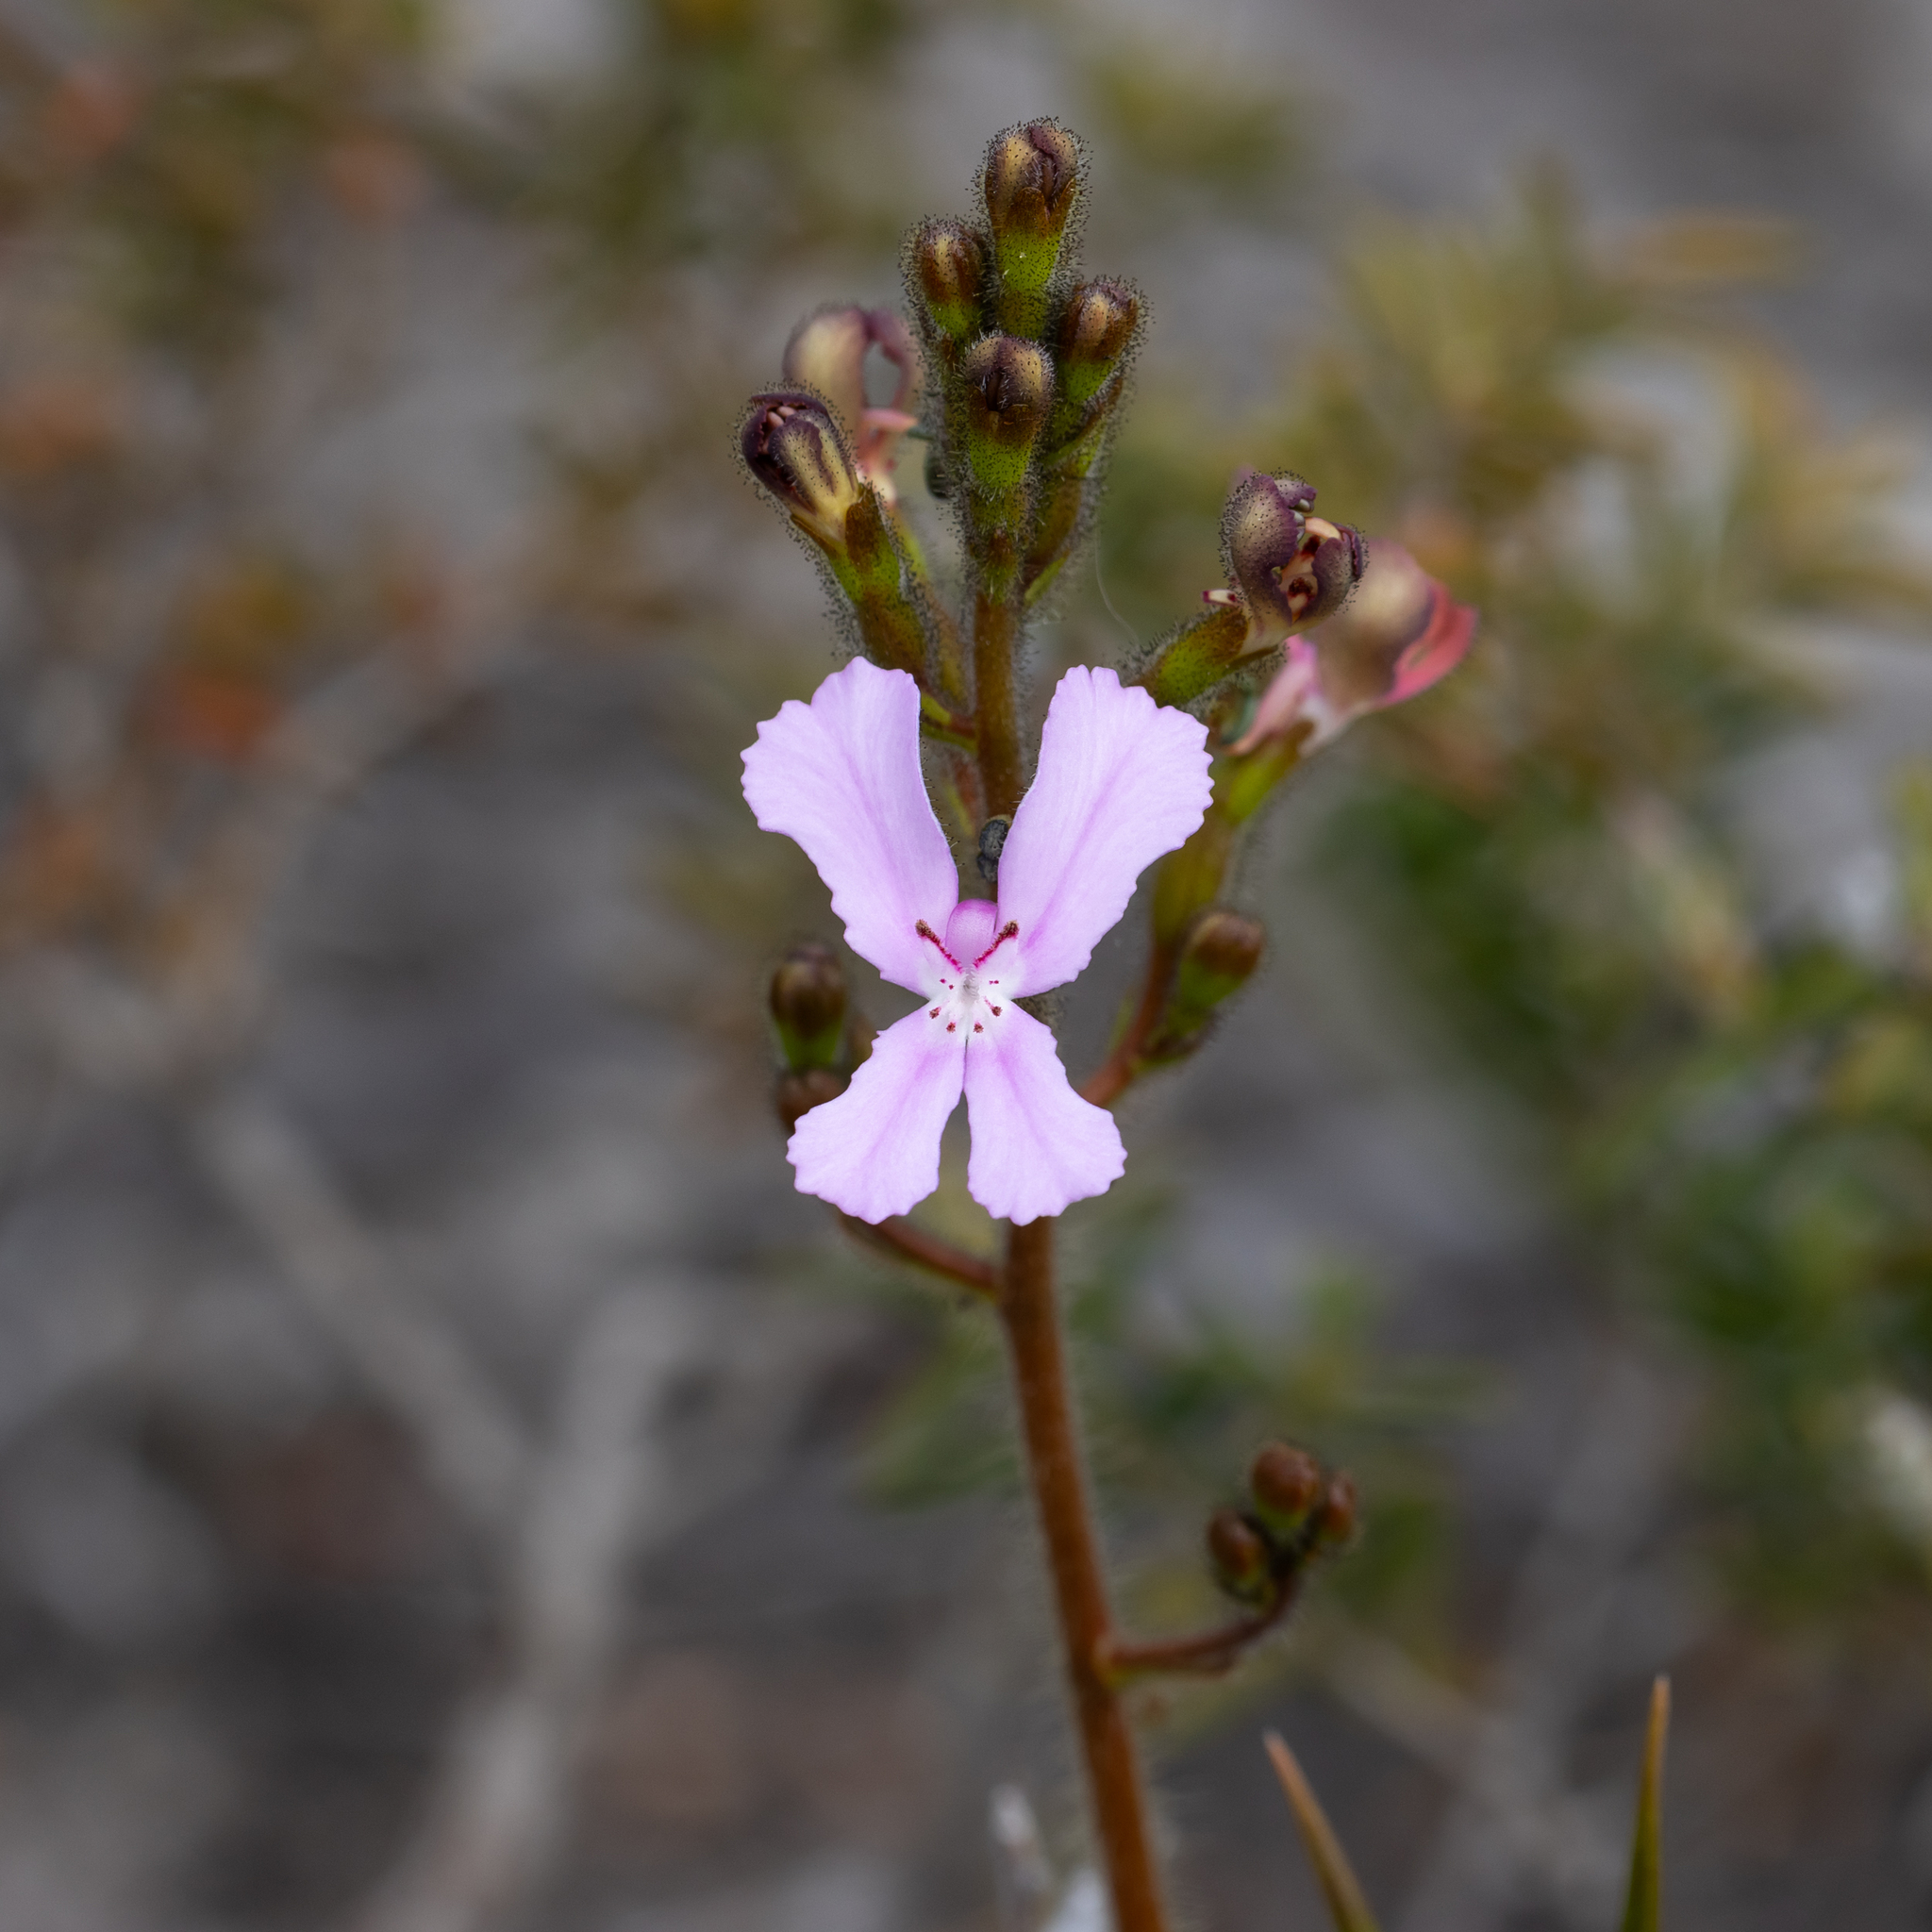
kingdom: Plantae
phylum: Tracheophyta
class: Magnoliopsida
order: Asterales
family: Stylidiaceae
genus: Stylidium
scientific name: Stylidium pilosum
